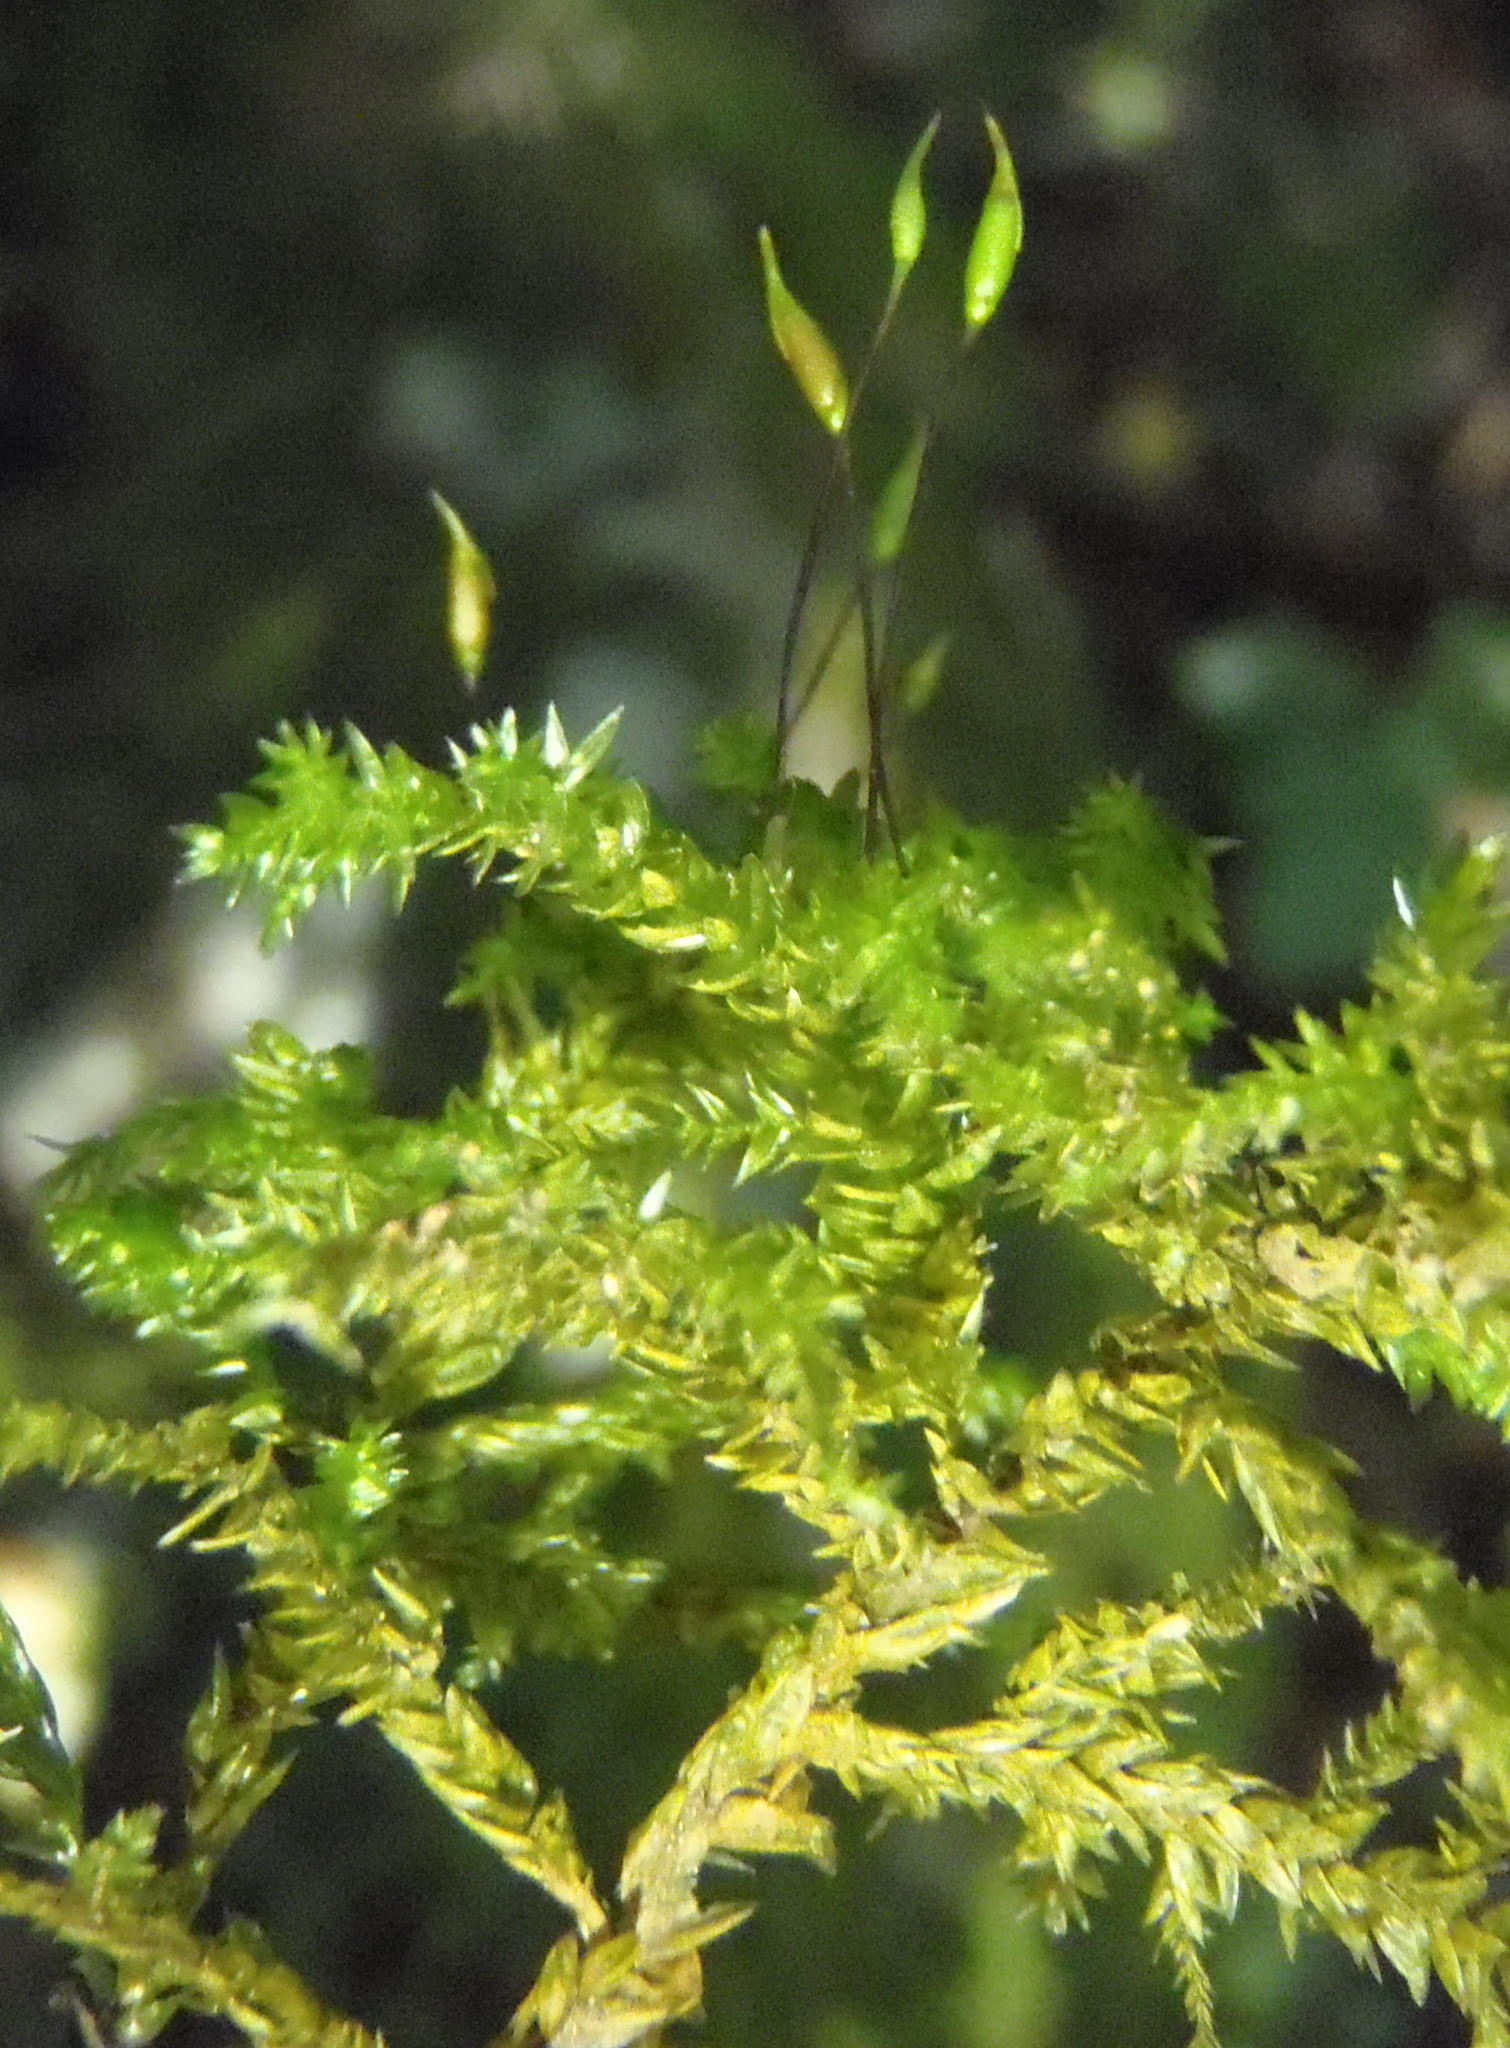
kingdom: Plantae
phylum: Bryophyta
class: Bryopsida
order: Hypnales
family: Neckeraceae
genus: Porotrichum
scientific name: Porotrichum madagassum
